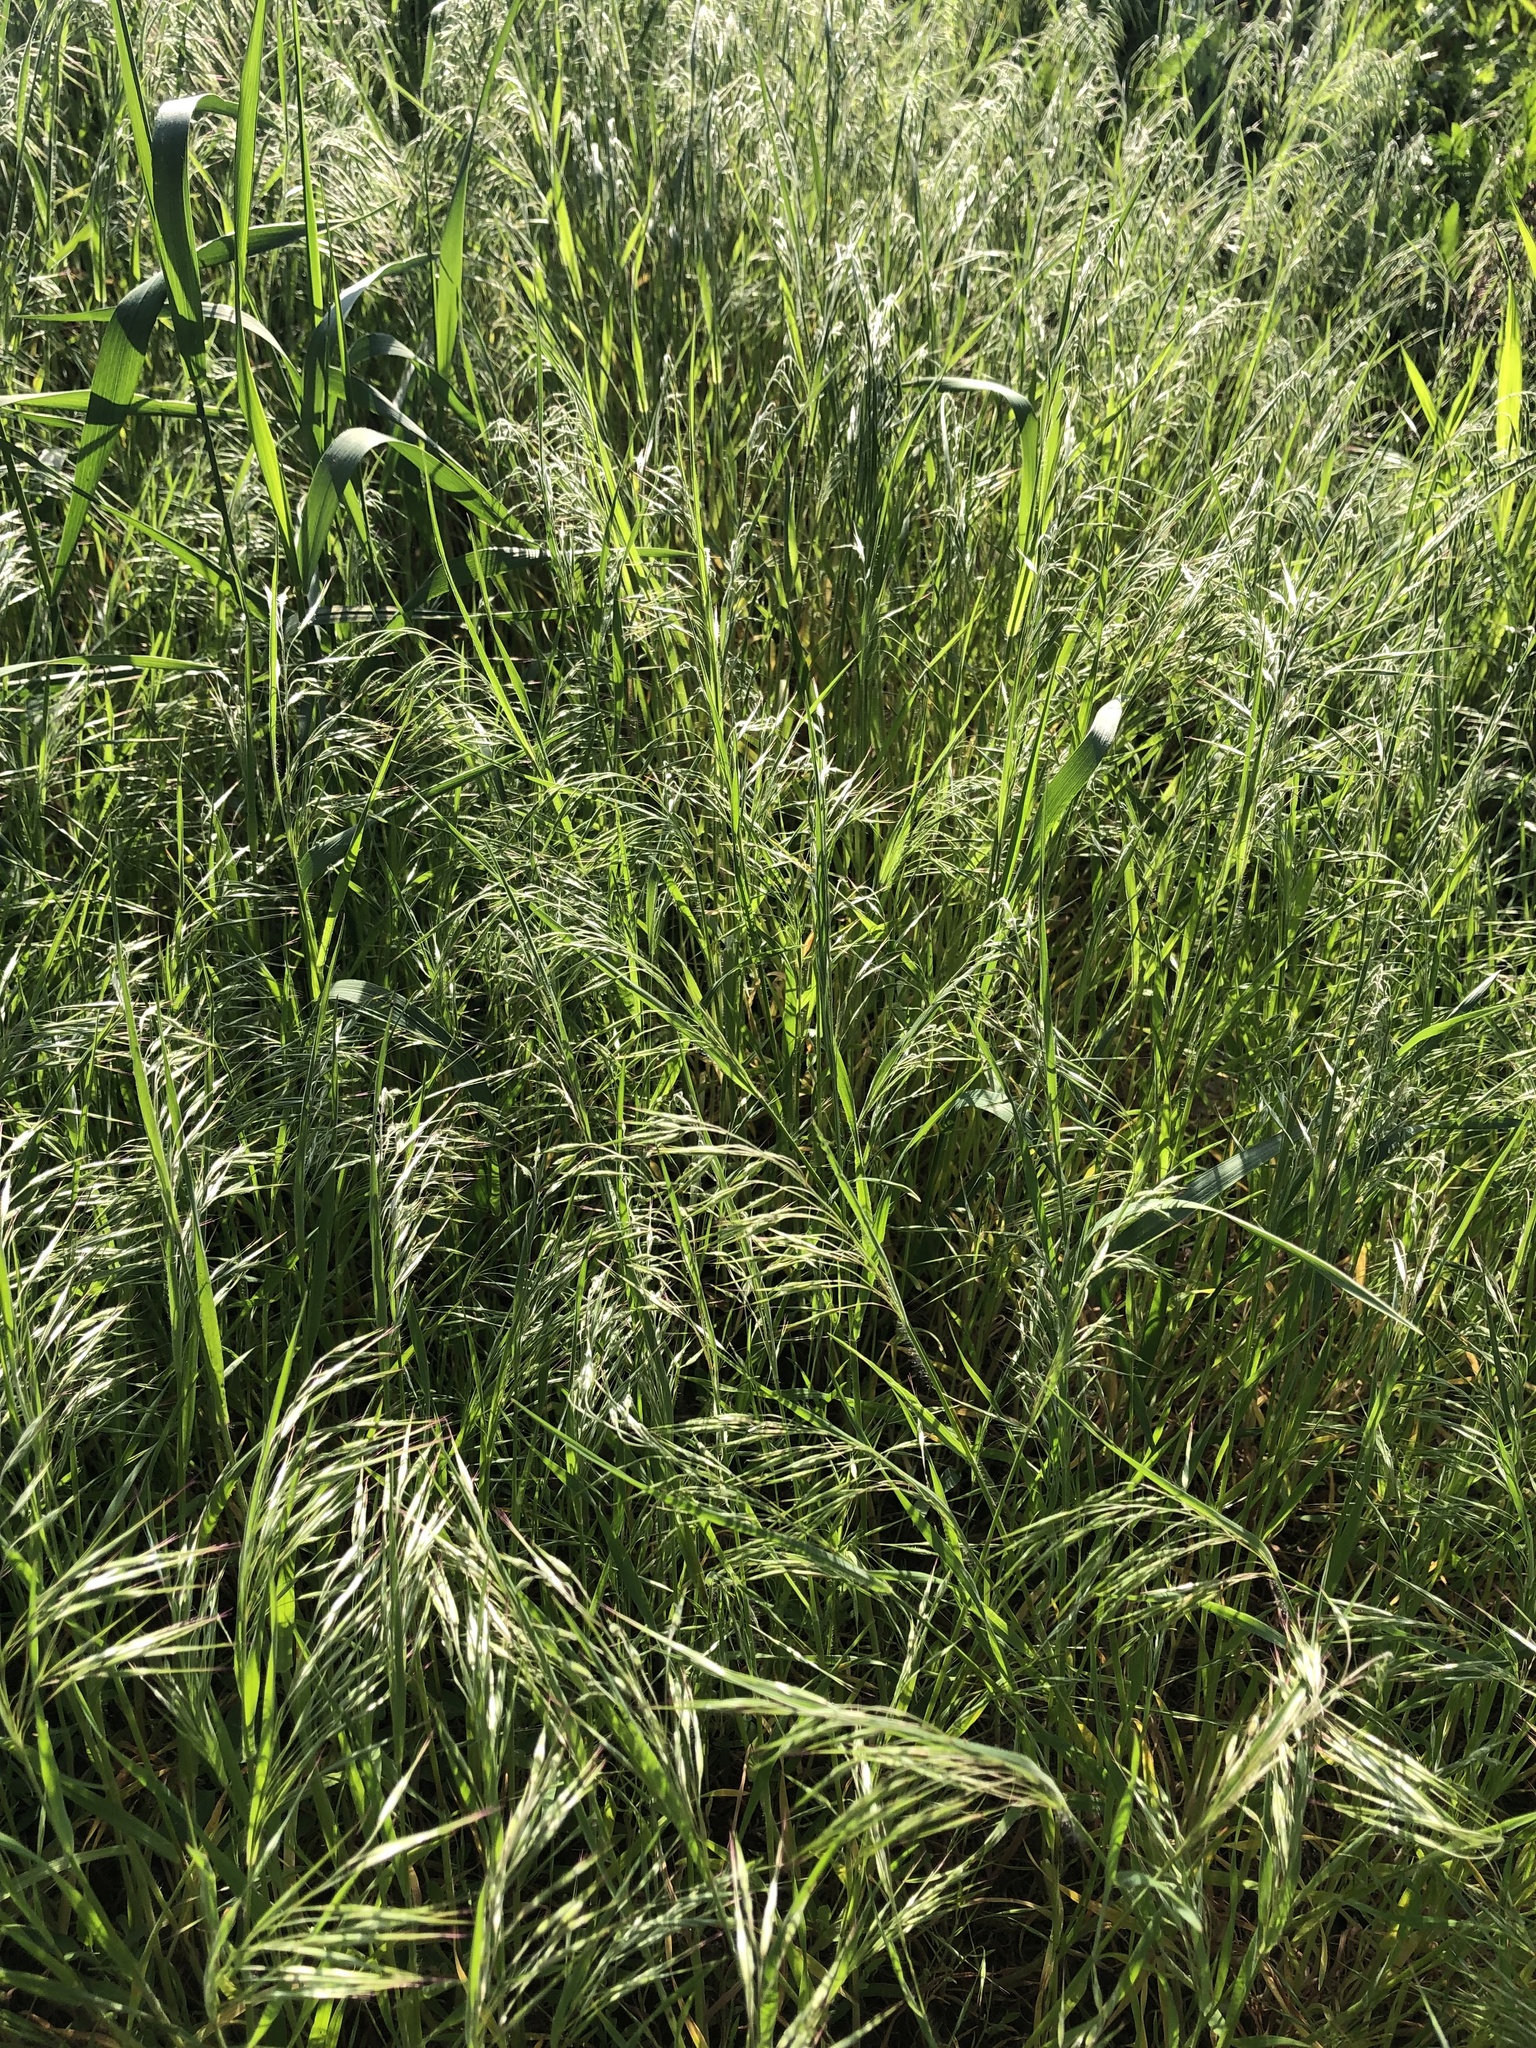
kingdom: Plantae
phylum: Tracheophyta
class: Liliopsida
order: Poales
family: Poaceae
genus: Bromus
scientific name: Bromus tectorum
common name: Cheatgrass
